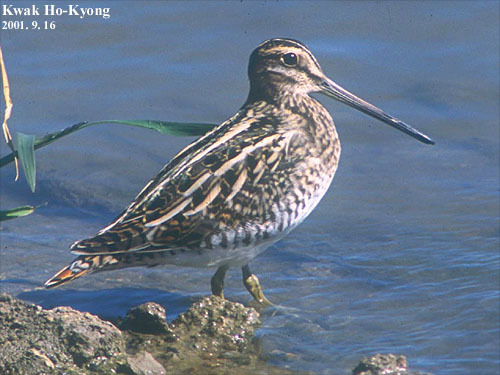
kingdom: Animalia
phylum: Chordata
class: Aves
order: Charadriiformes
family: Scolopacidae
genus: Gallinago
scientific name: Gallinago gallinago
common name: Common snipe
